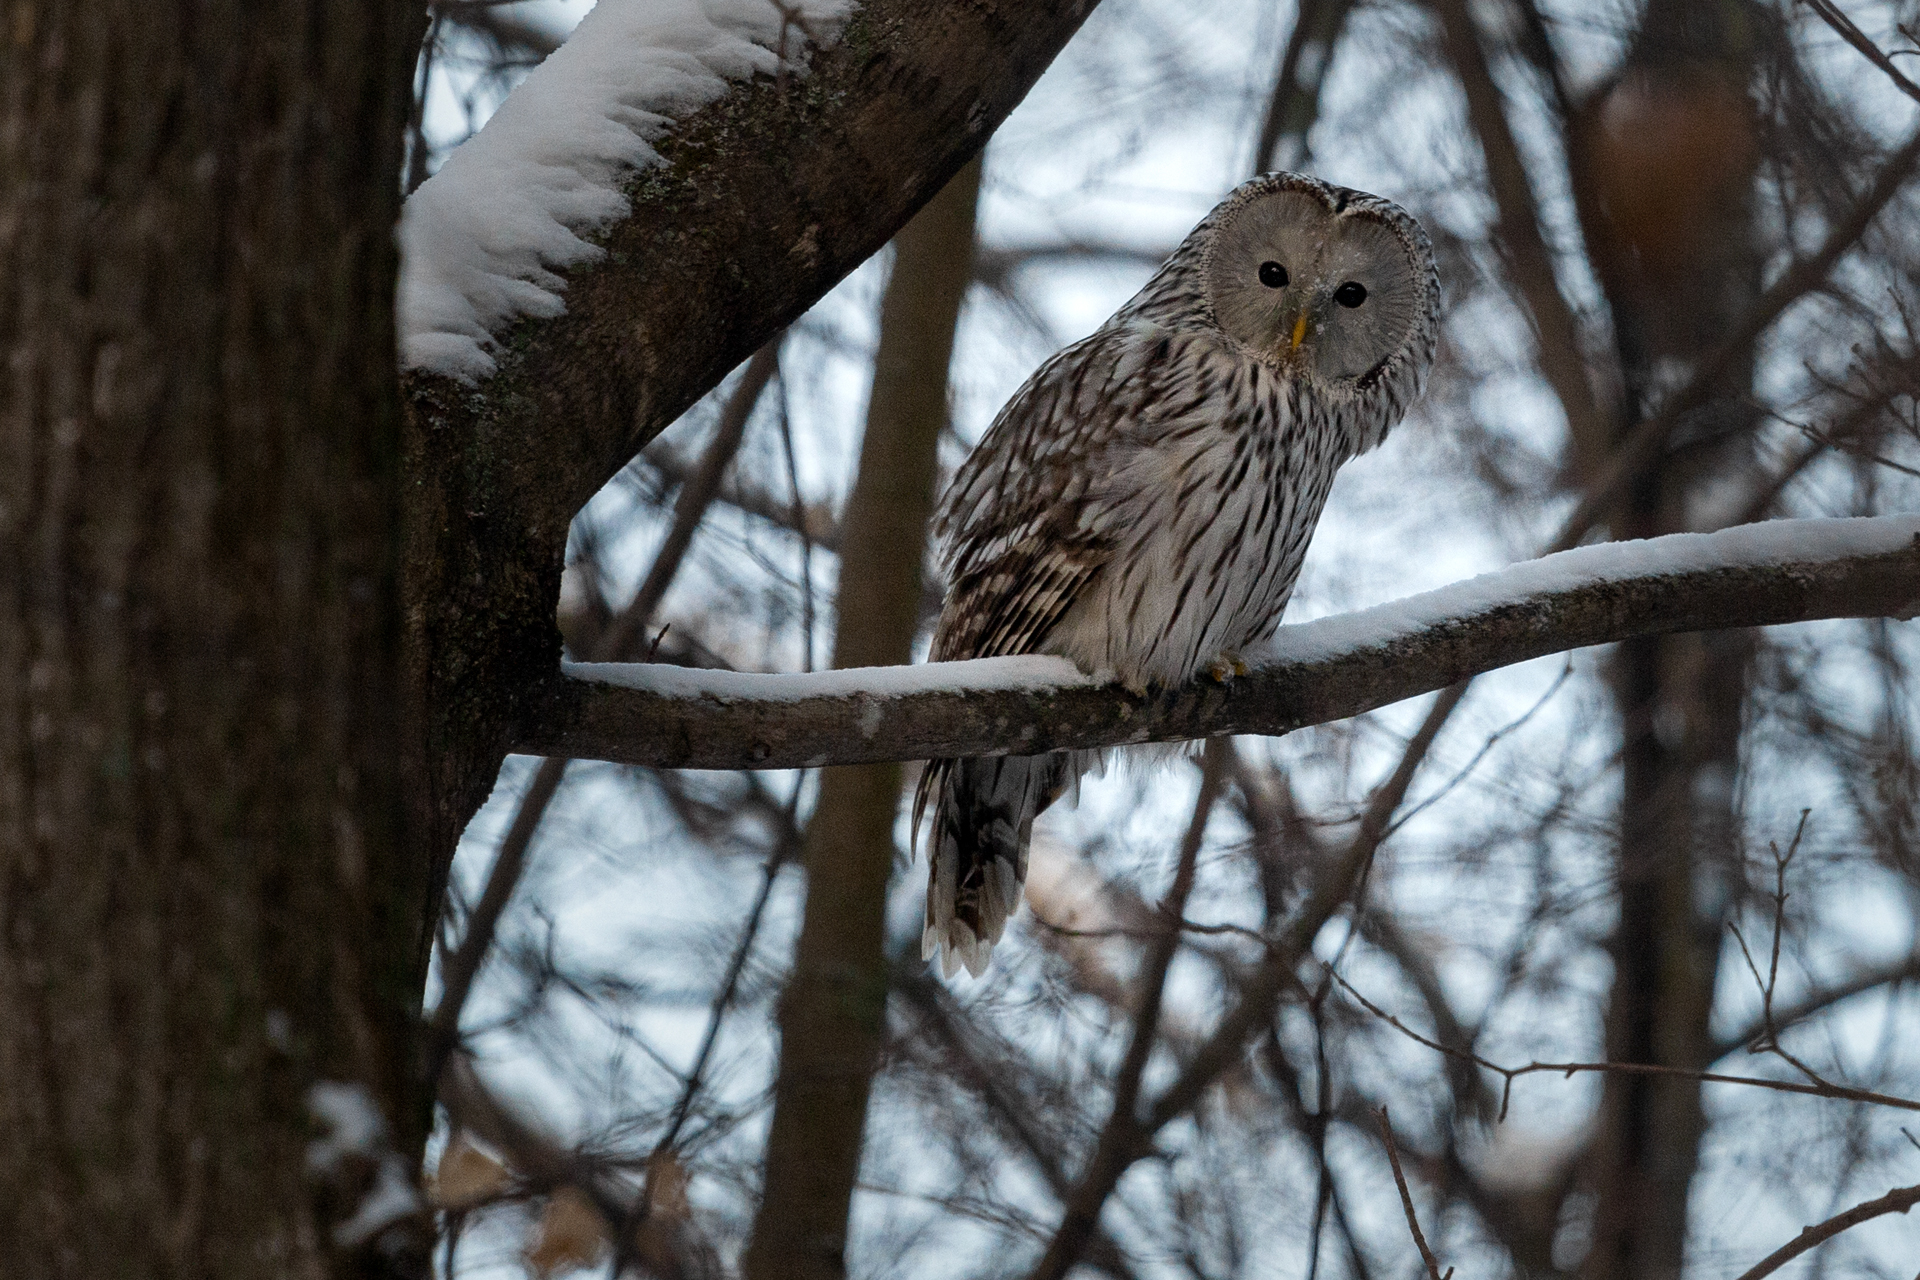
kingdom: Animalia
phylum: Chordata
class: Aves
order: Strigiformes
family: Strigidae
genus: Strix
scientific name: Strix uralensis
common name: Ural owl
